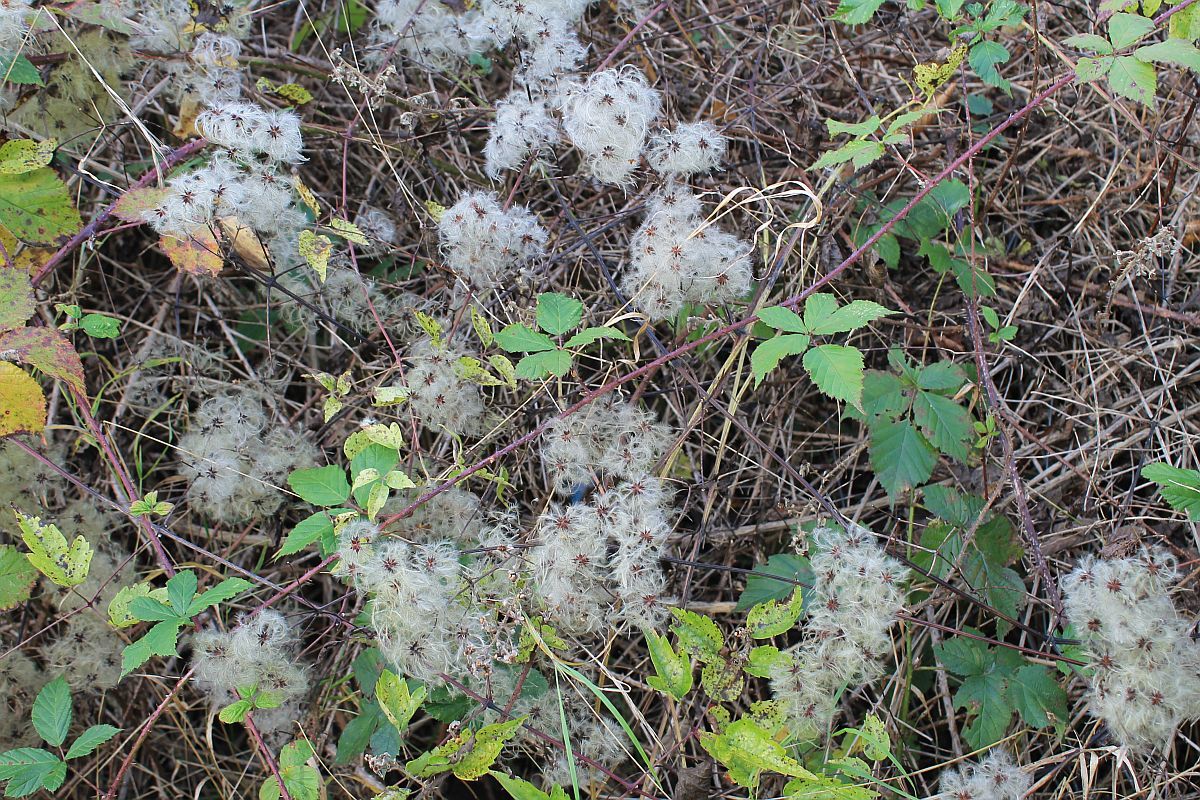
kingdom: Plantae
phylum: Tracheophyta
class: Magnoliopsida
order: Ranunculales
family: Ranunculaceae
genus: Clematis
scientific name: Clematis vitalba
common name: Evergreen clematis
